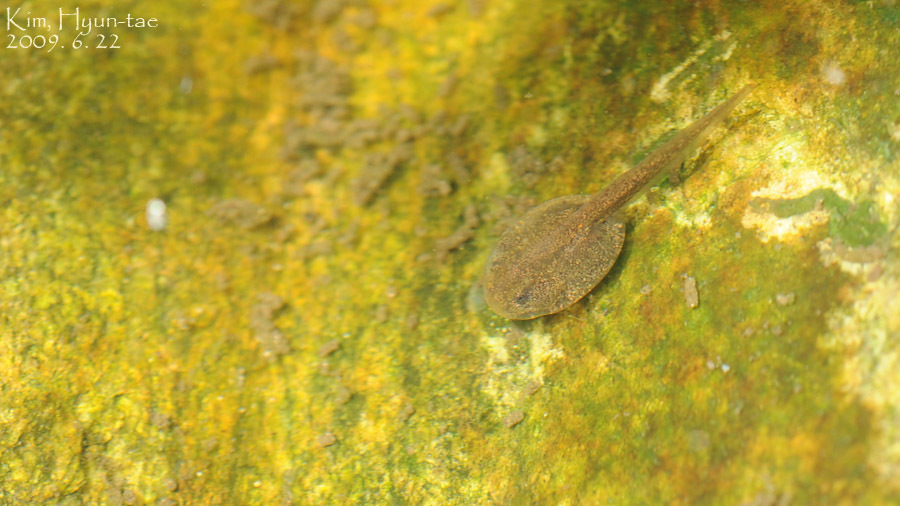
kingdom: Animalia
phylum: Chordata
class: Amphibia
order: Anura
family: Bombinatoridae
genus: Bombina
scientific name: Bombina orientalis
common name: Oriental firebelly toad
